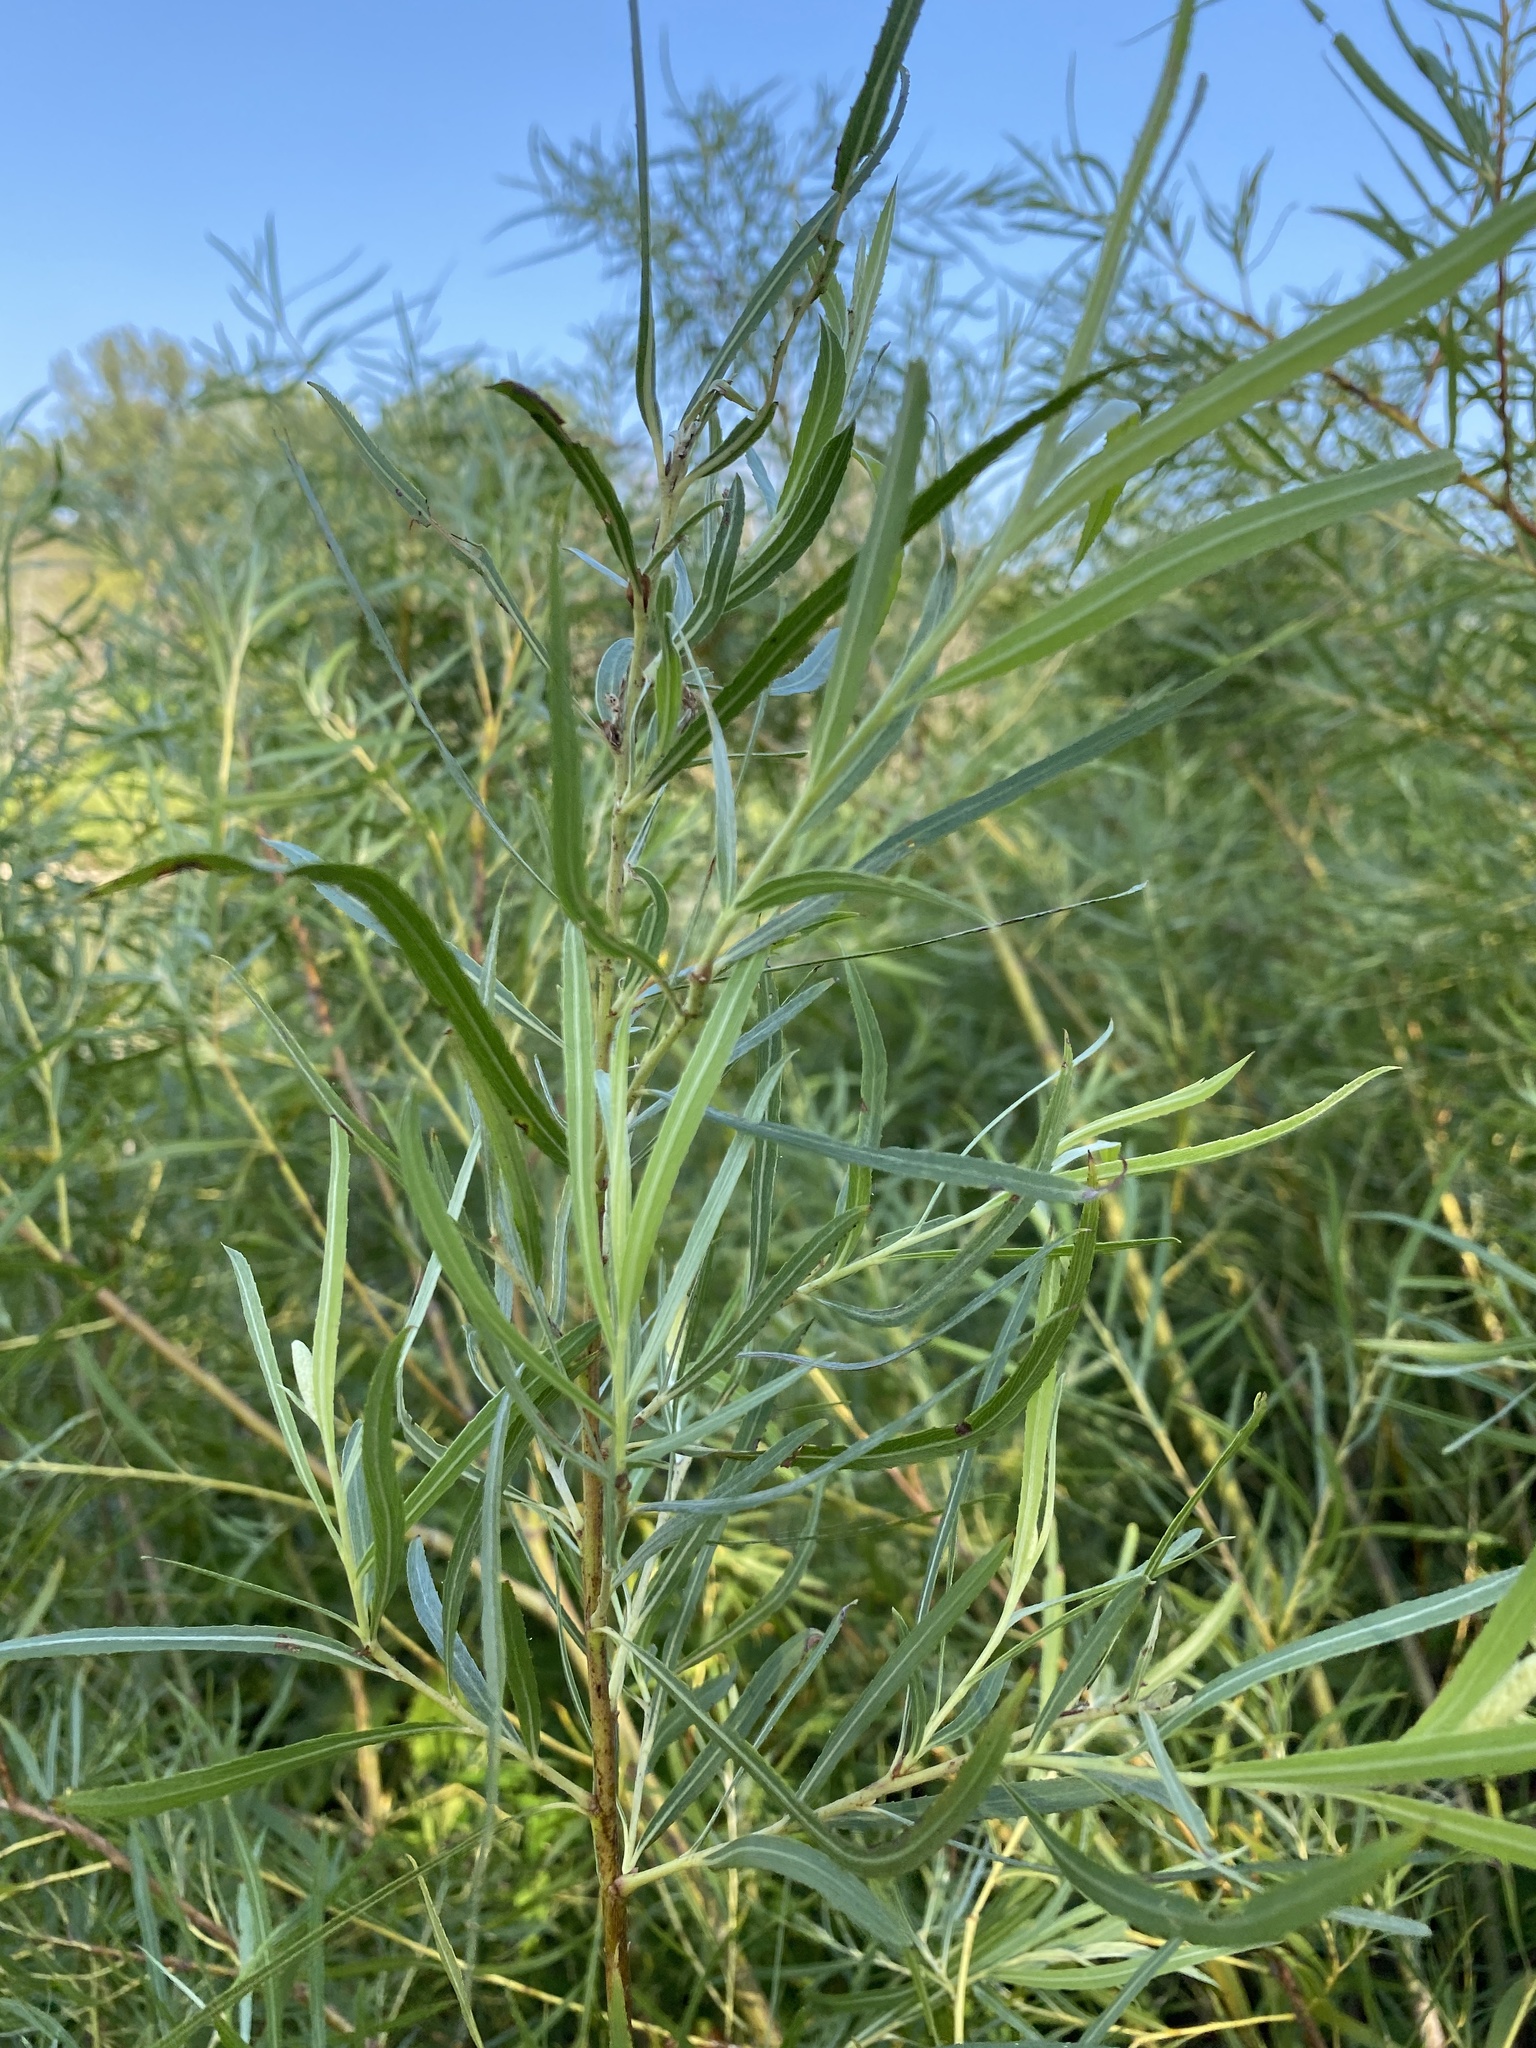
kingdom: Plantae
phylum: Tracheophyta
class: Magnoliopsida
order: Malpighiales
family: Salicaceae
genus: Salix
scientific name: Salix interior
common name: Sandbar willow
